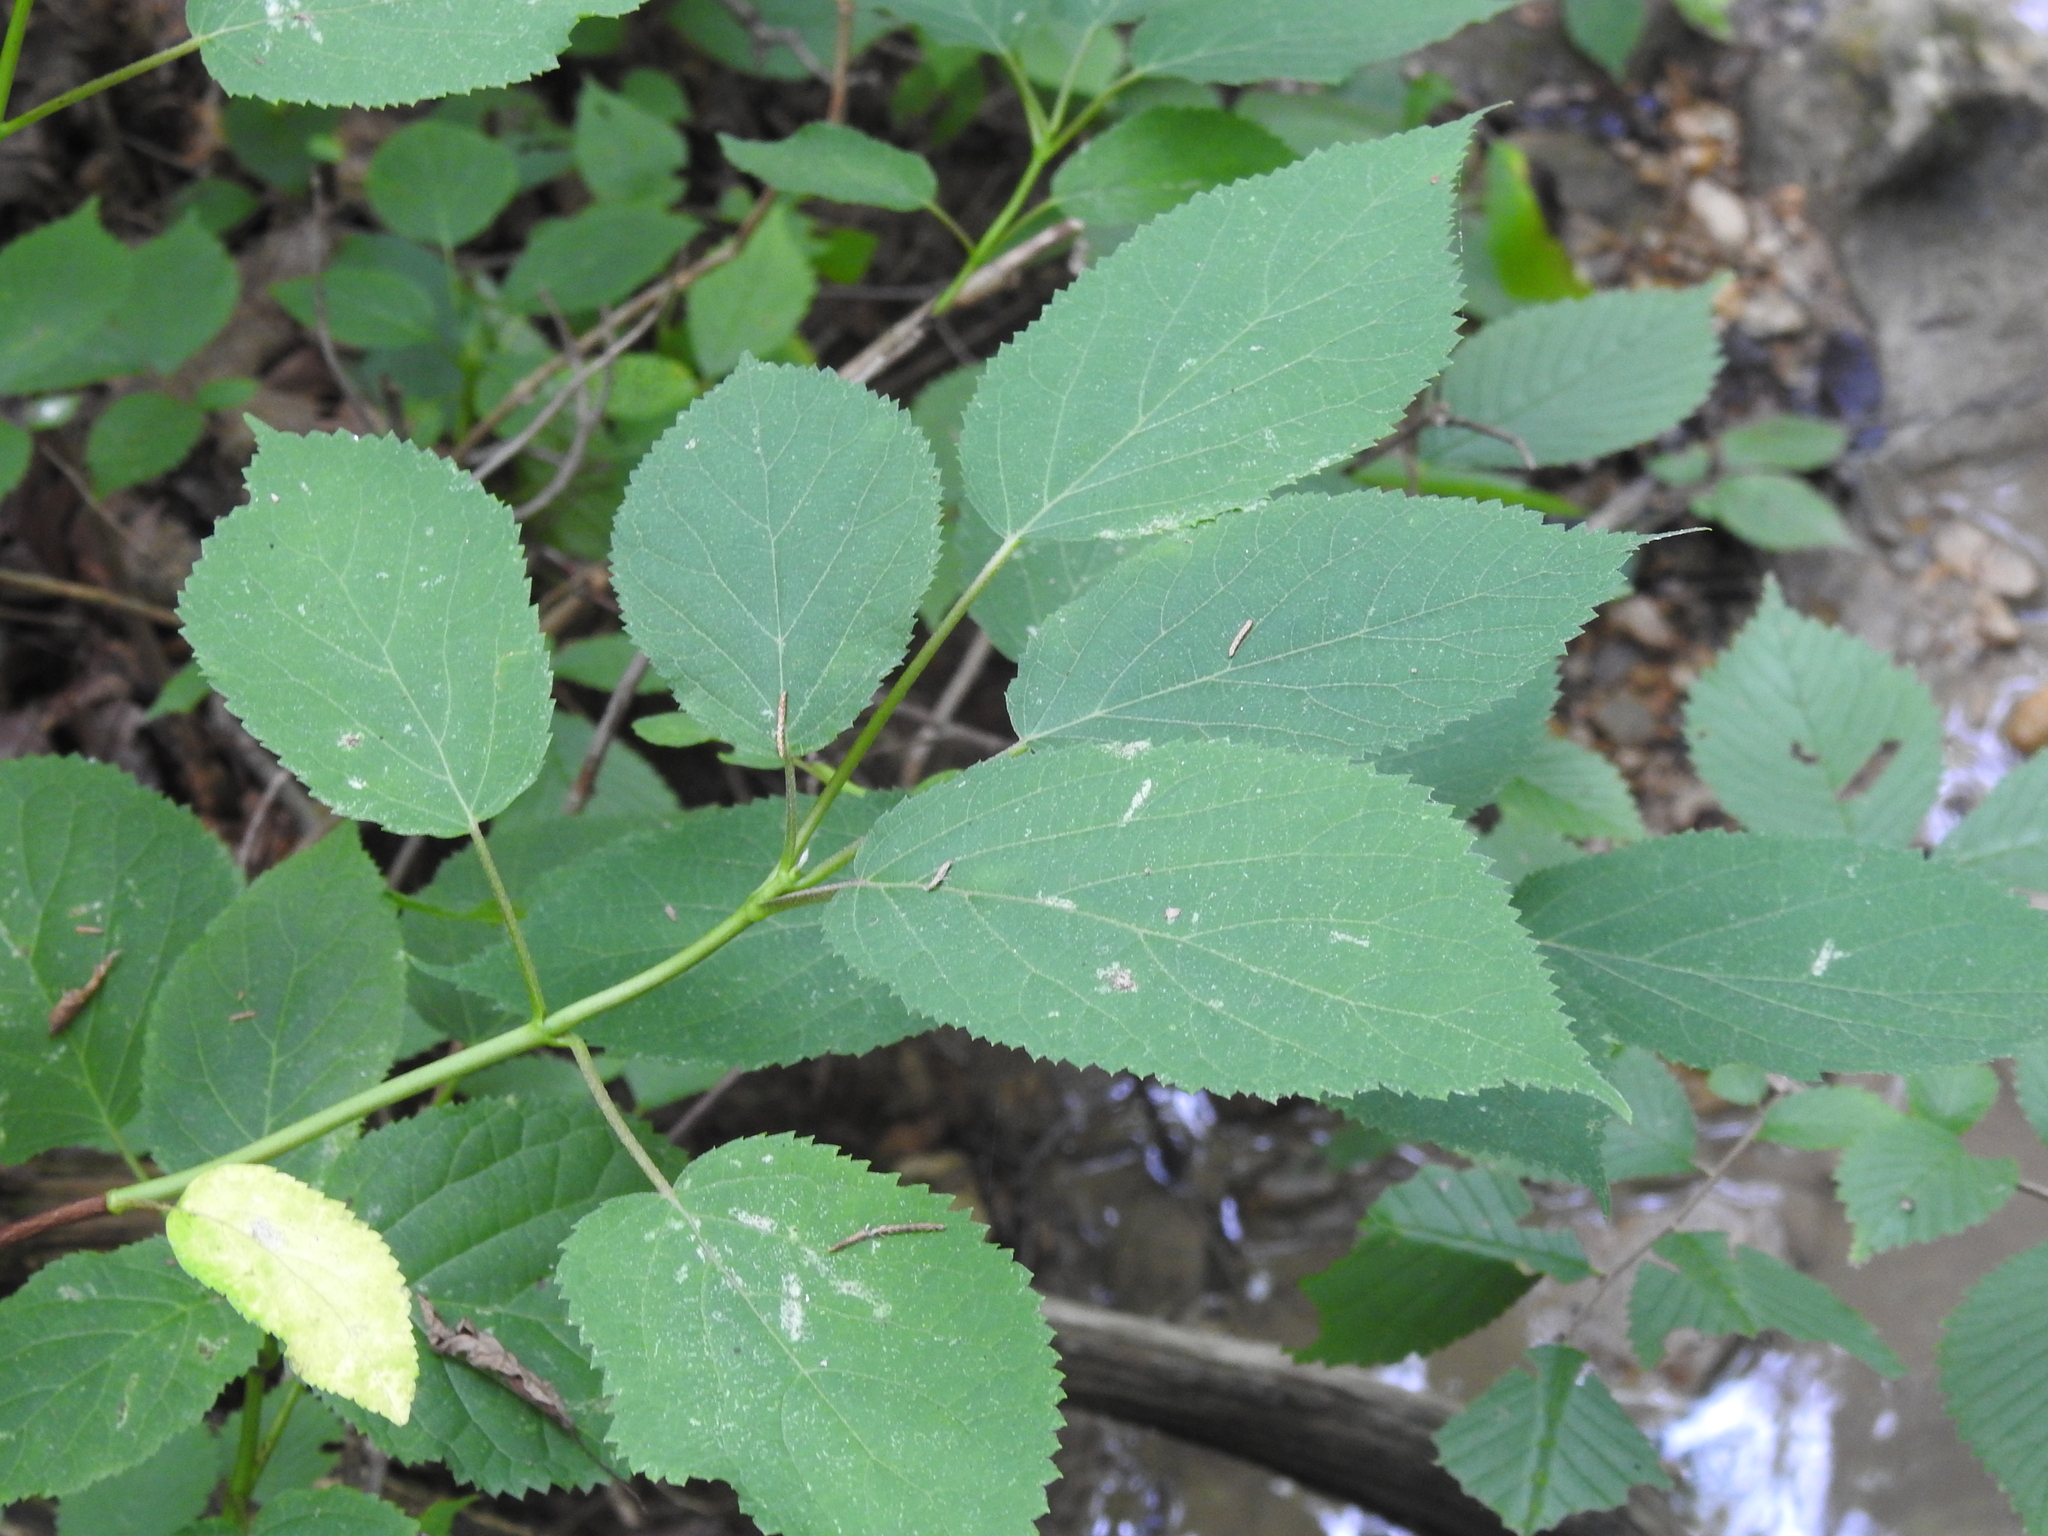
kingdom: Plantae
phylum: Tracheophyta
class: Magnoliopsida
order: Cornales
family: Hydrangeaceae
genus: Hydrangea
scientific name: Hydrangea arborescens
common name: Sevenbark
